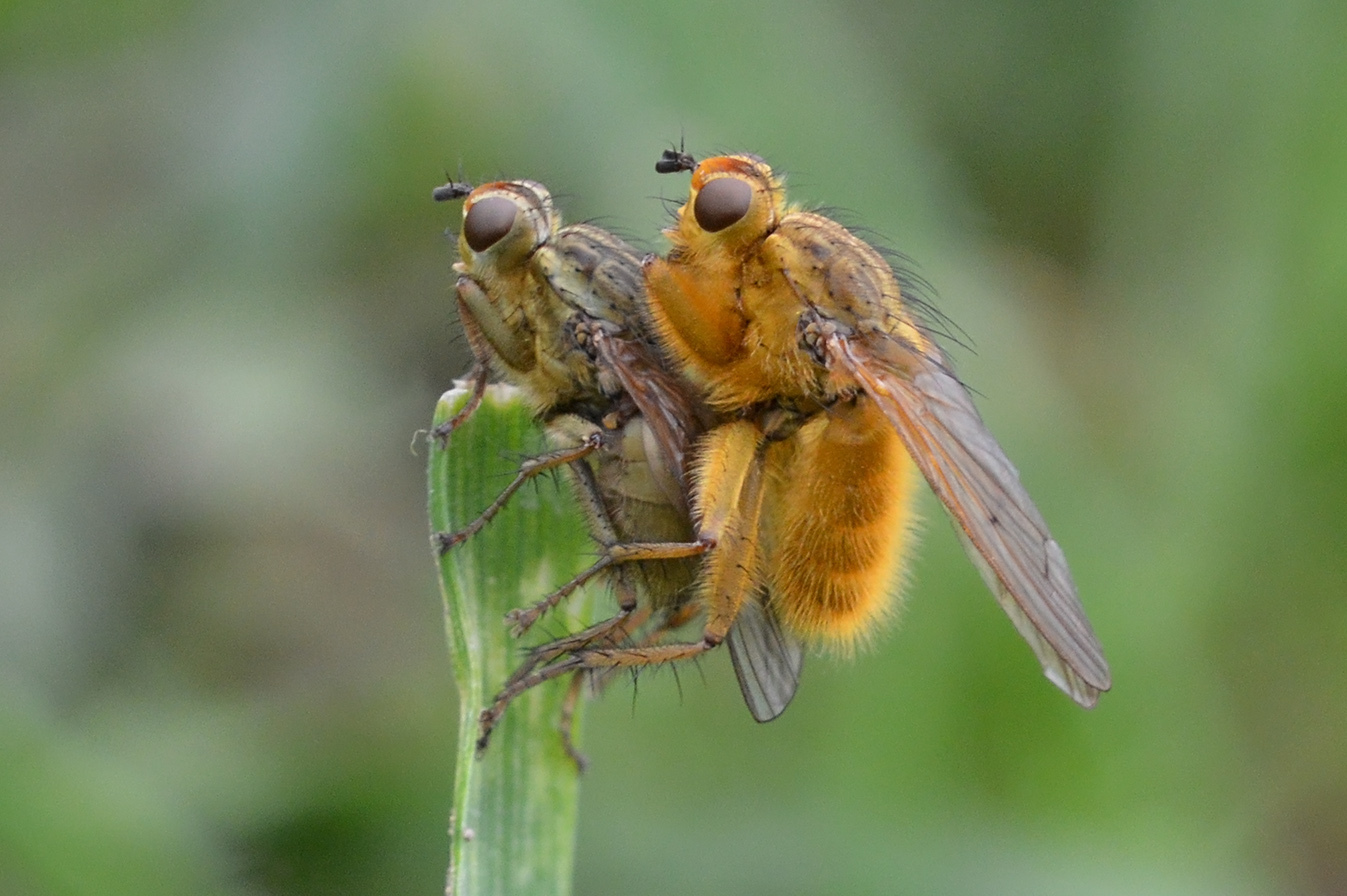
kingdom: Animalia
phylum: Arthropoda
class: Insecta
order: Diptera
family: Scathophagidae
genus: Scathophaga
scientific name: Scathophaga stercoraria
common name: Yellow dung fly
